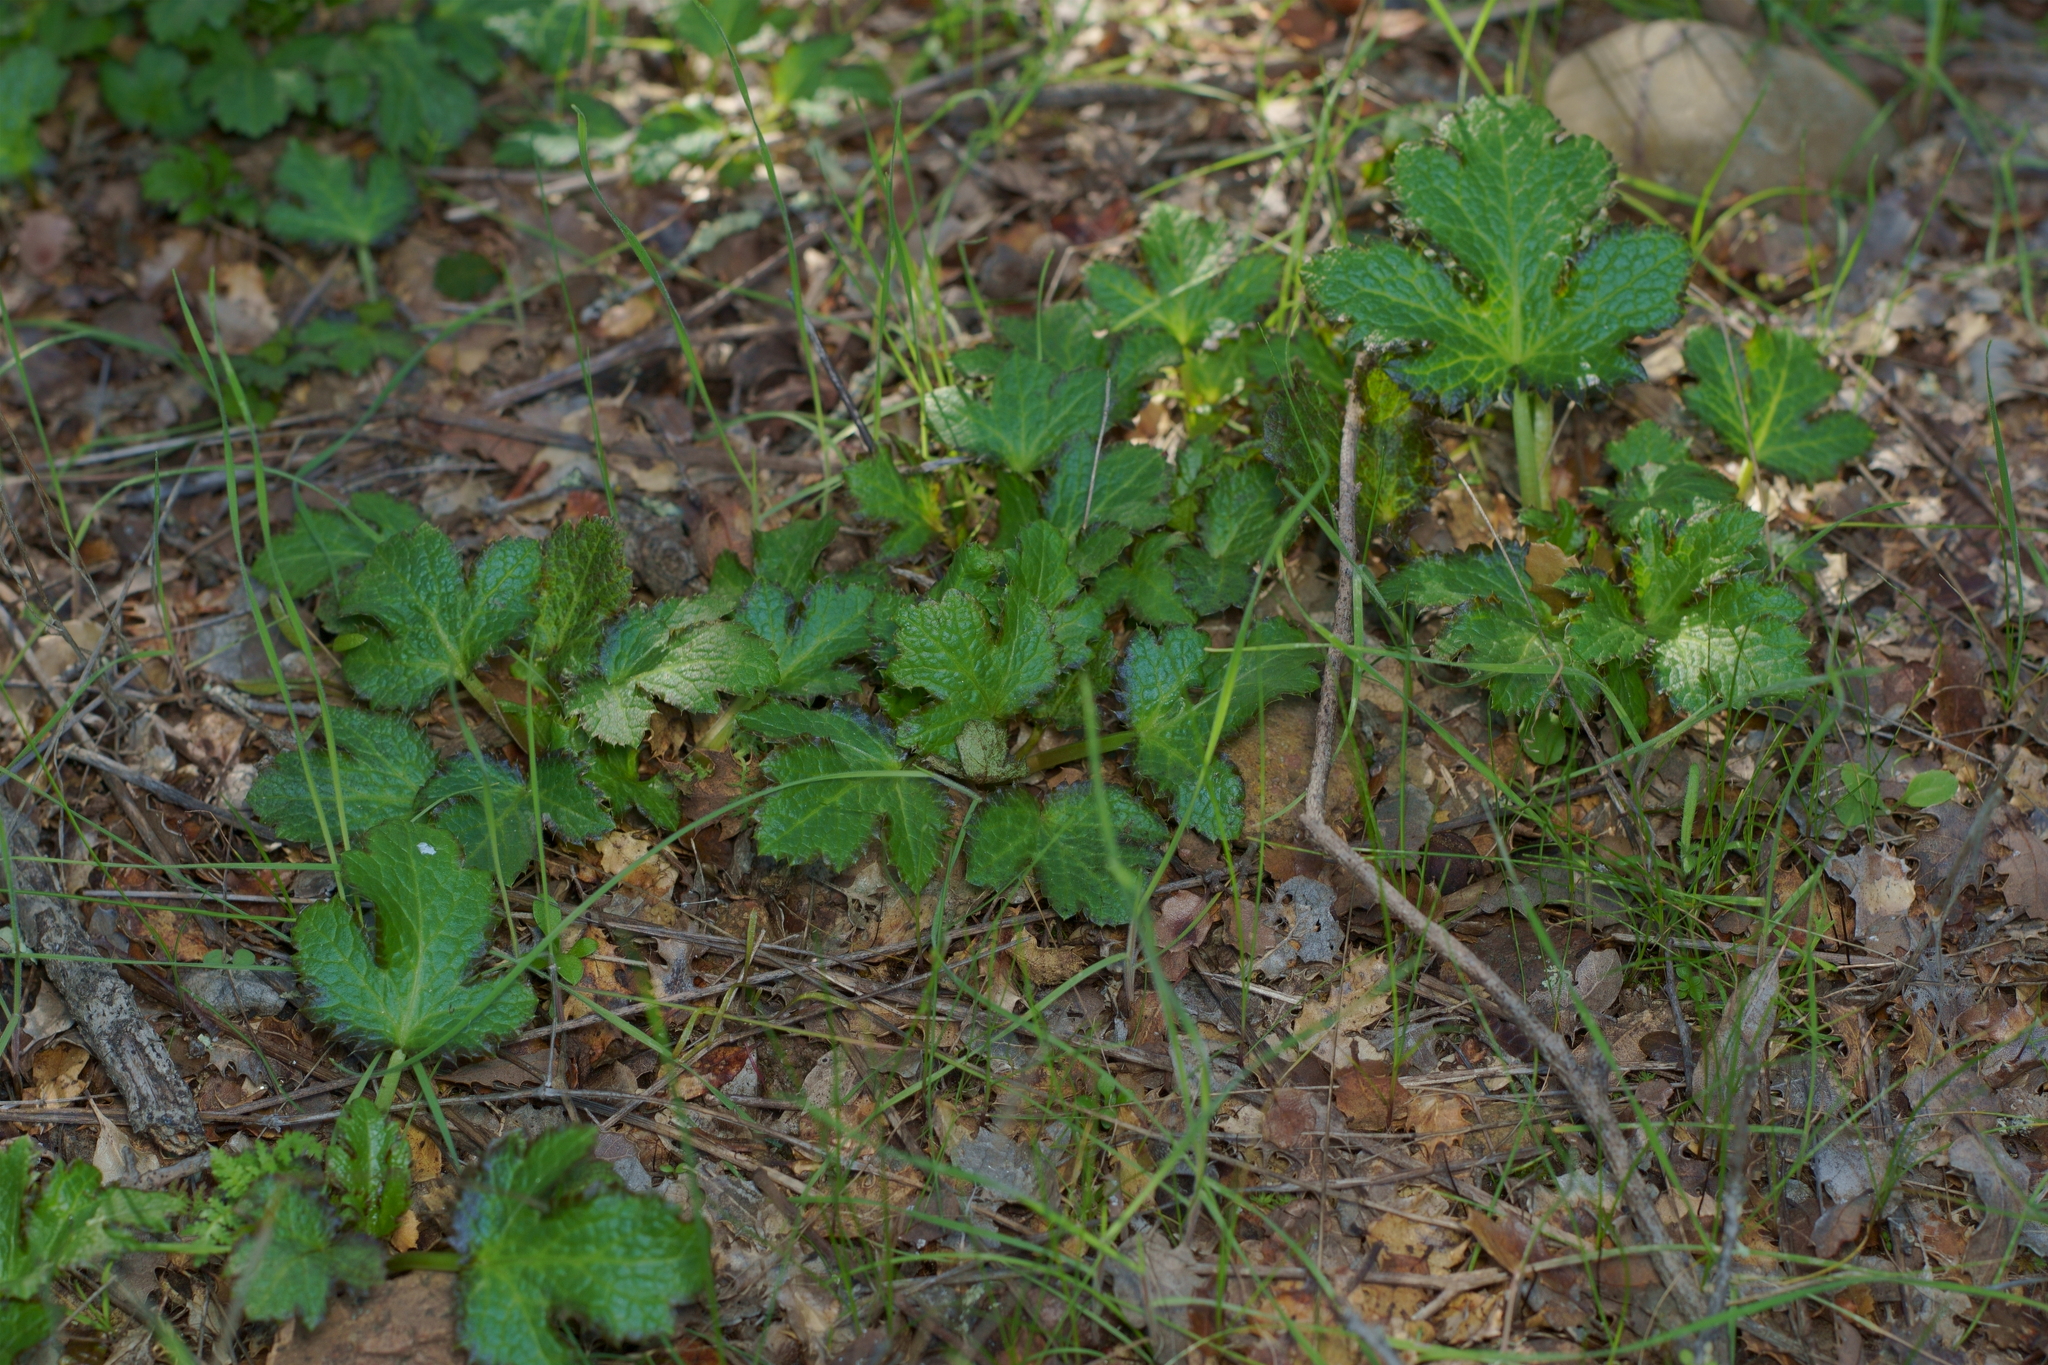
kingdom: Plantae
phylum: Tracheophyta
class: Magnoliopsida
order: Apiales
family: Apiaceae
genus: Sanicula
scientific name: Sanicula crassicaulis
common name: Western snakeroot
